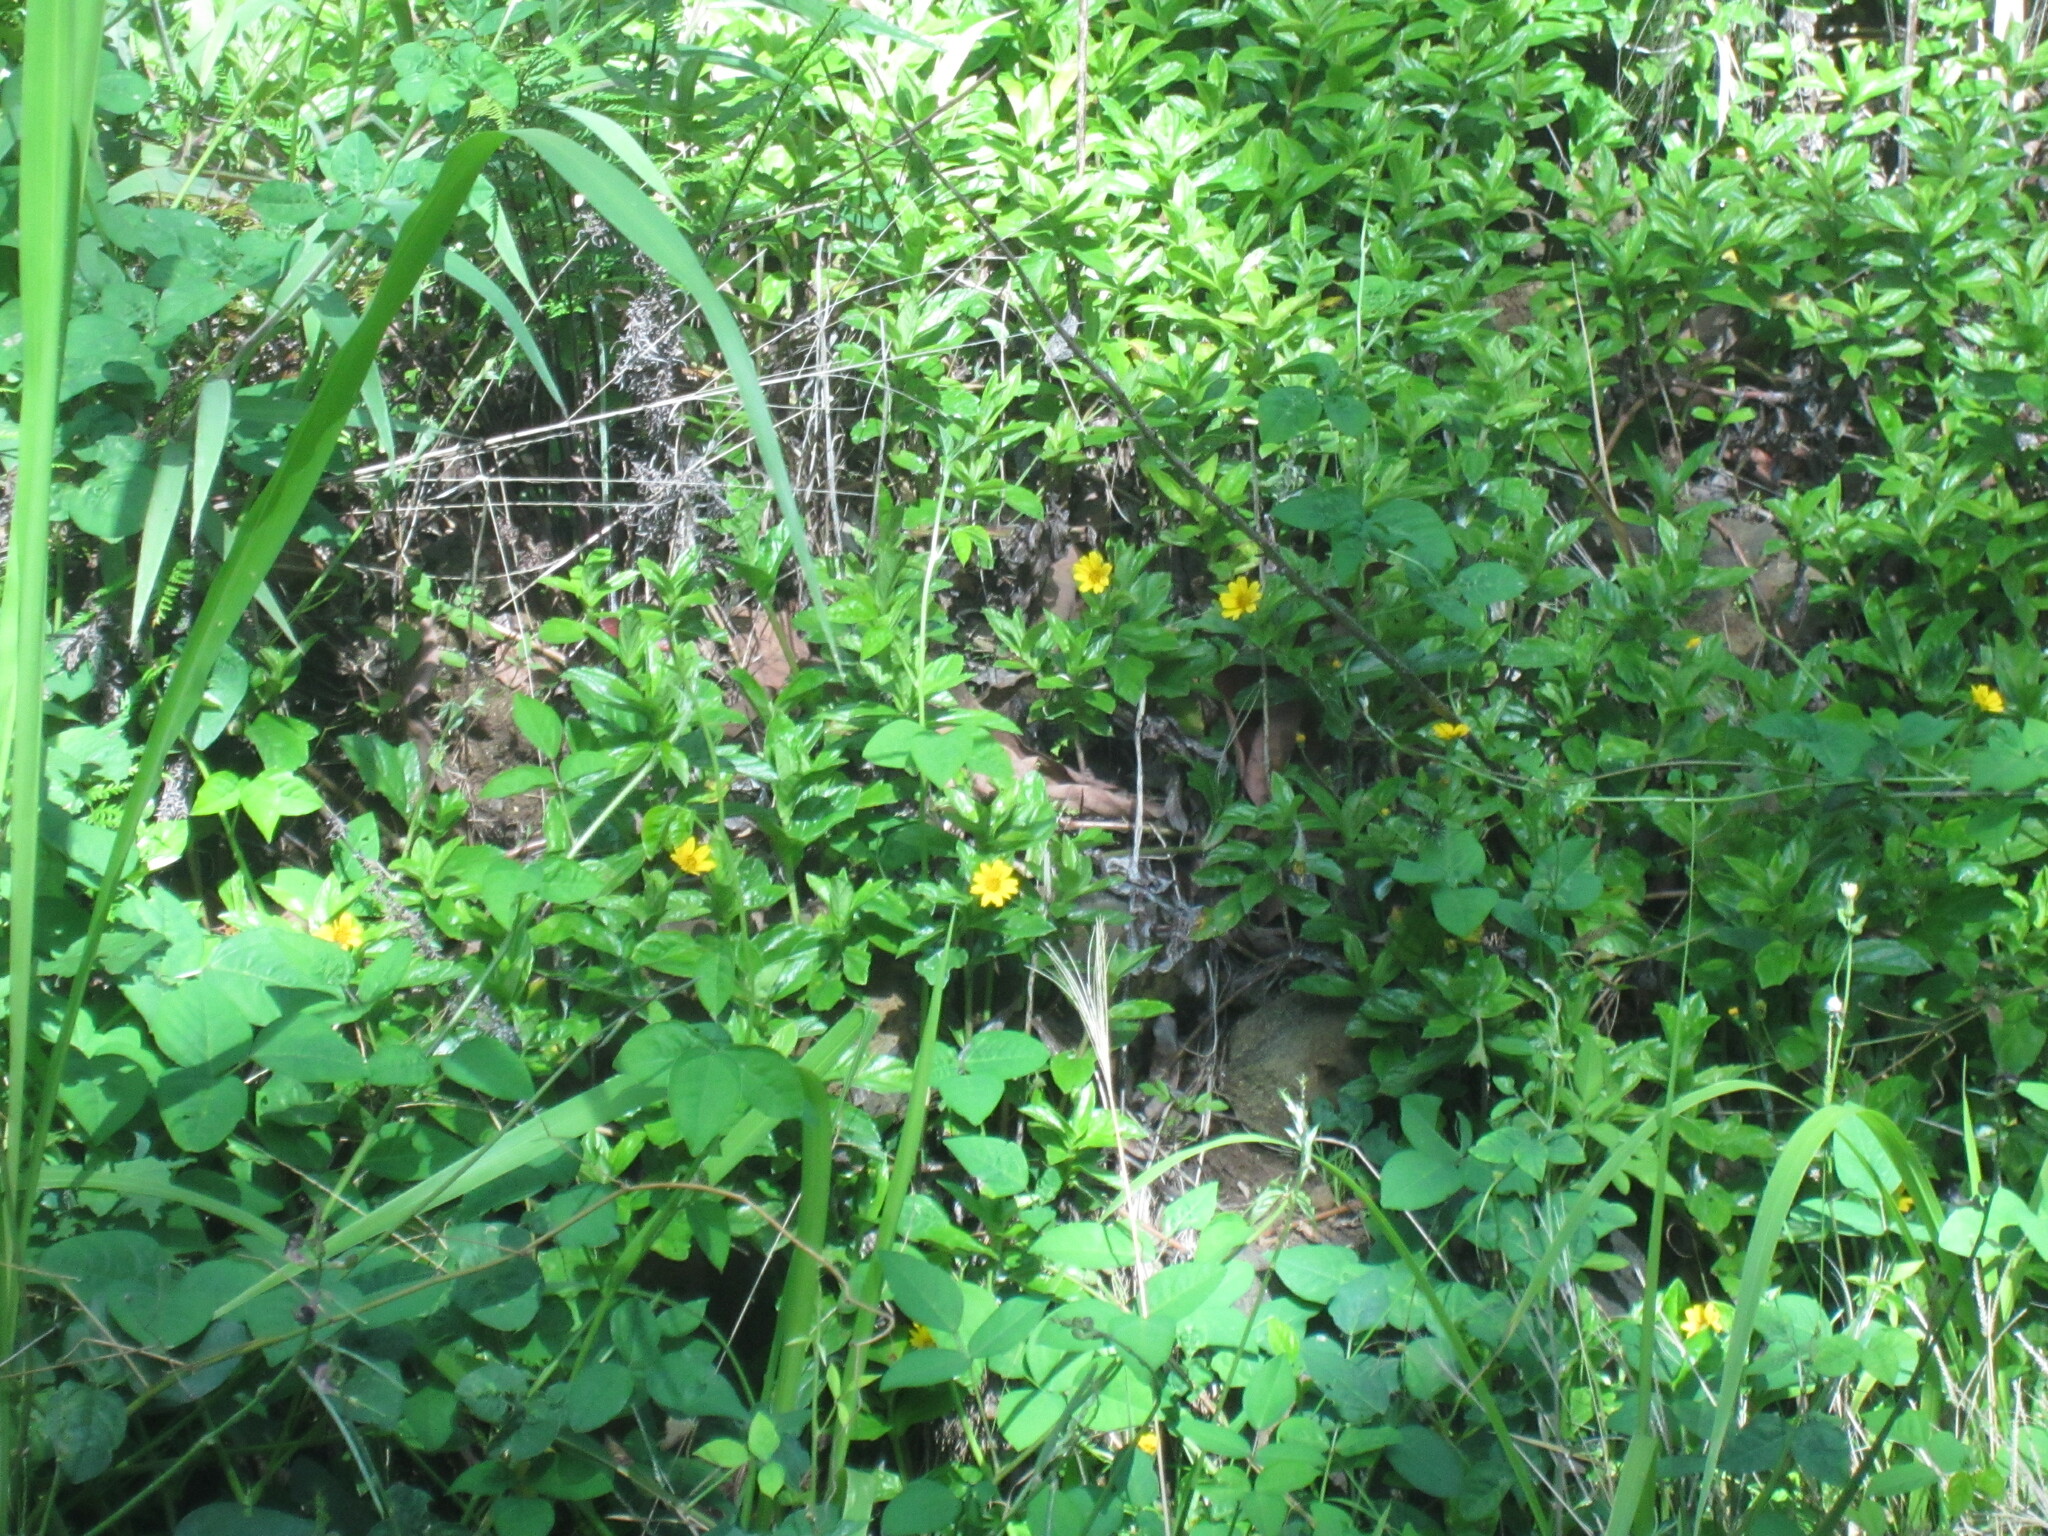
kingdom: Plantae
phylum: Tracheophyta
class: Magnoliopsida
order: Asterales
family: Asteraceae
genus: Sphagneticola
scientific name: Sphagneticola trilobata
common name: Bay biscayne creeping-oxeye
